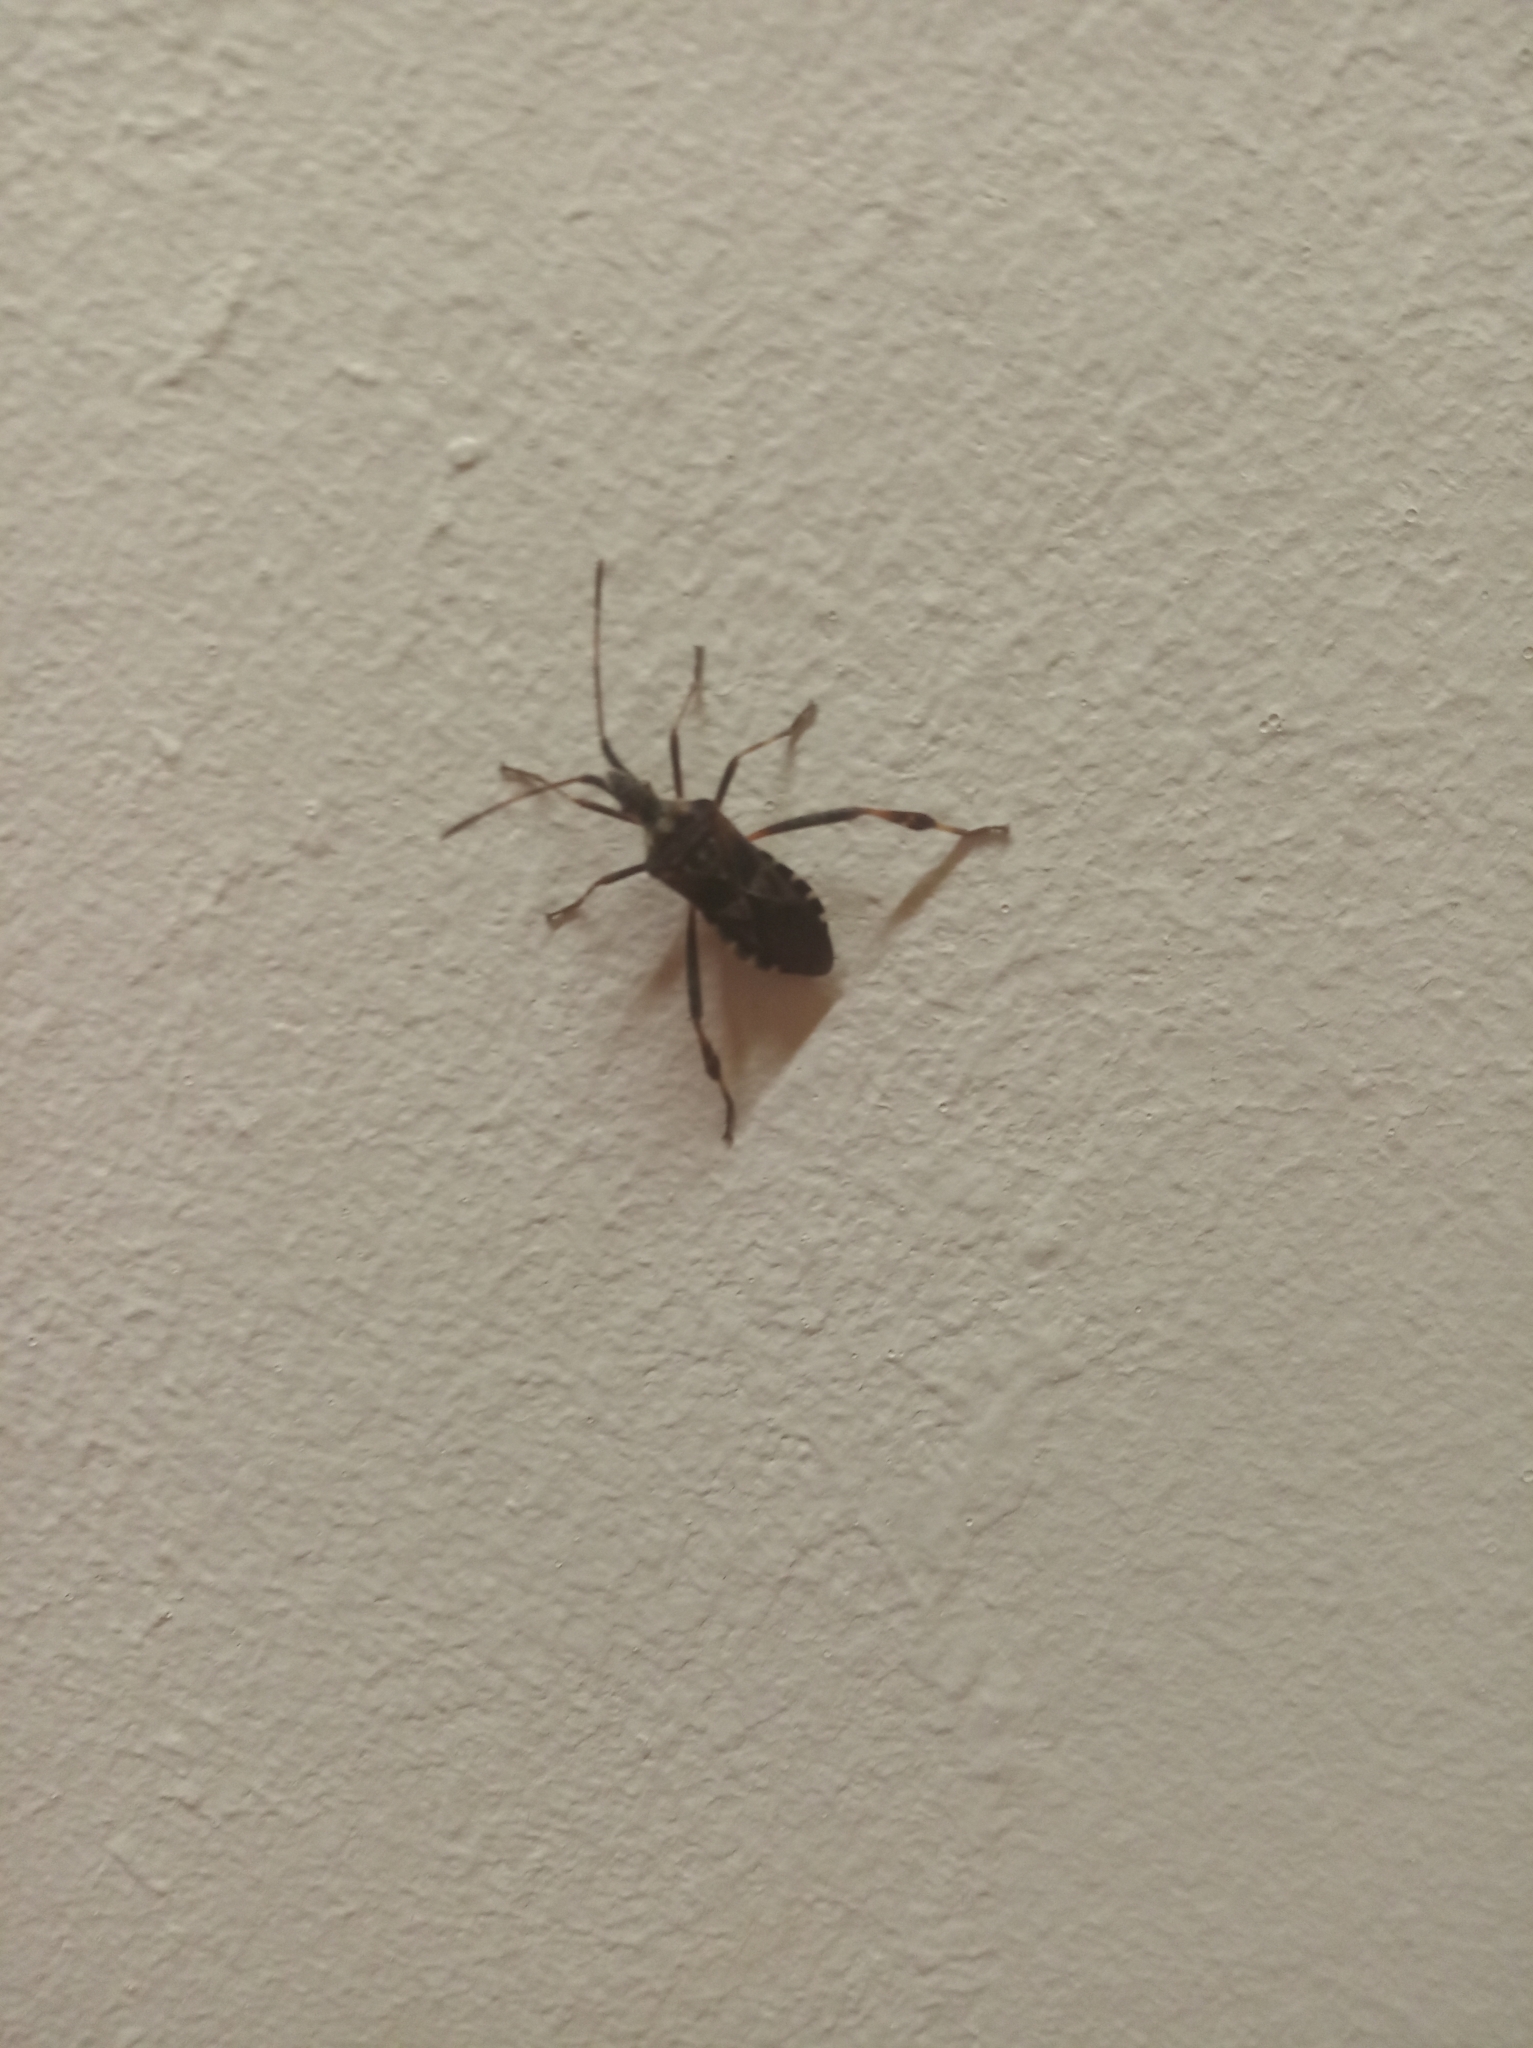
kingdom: Animalia
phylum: Arthropoda
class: Insecta
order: Hemiptera
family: Coreidae
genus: Leptoglossus
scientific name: Leptoglossus occidentalis
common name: Western conifer-seed bug
